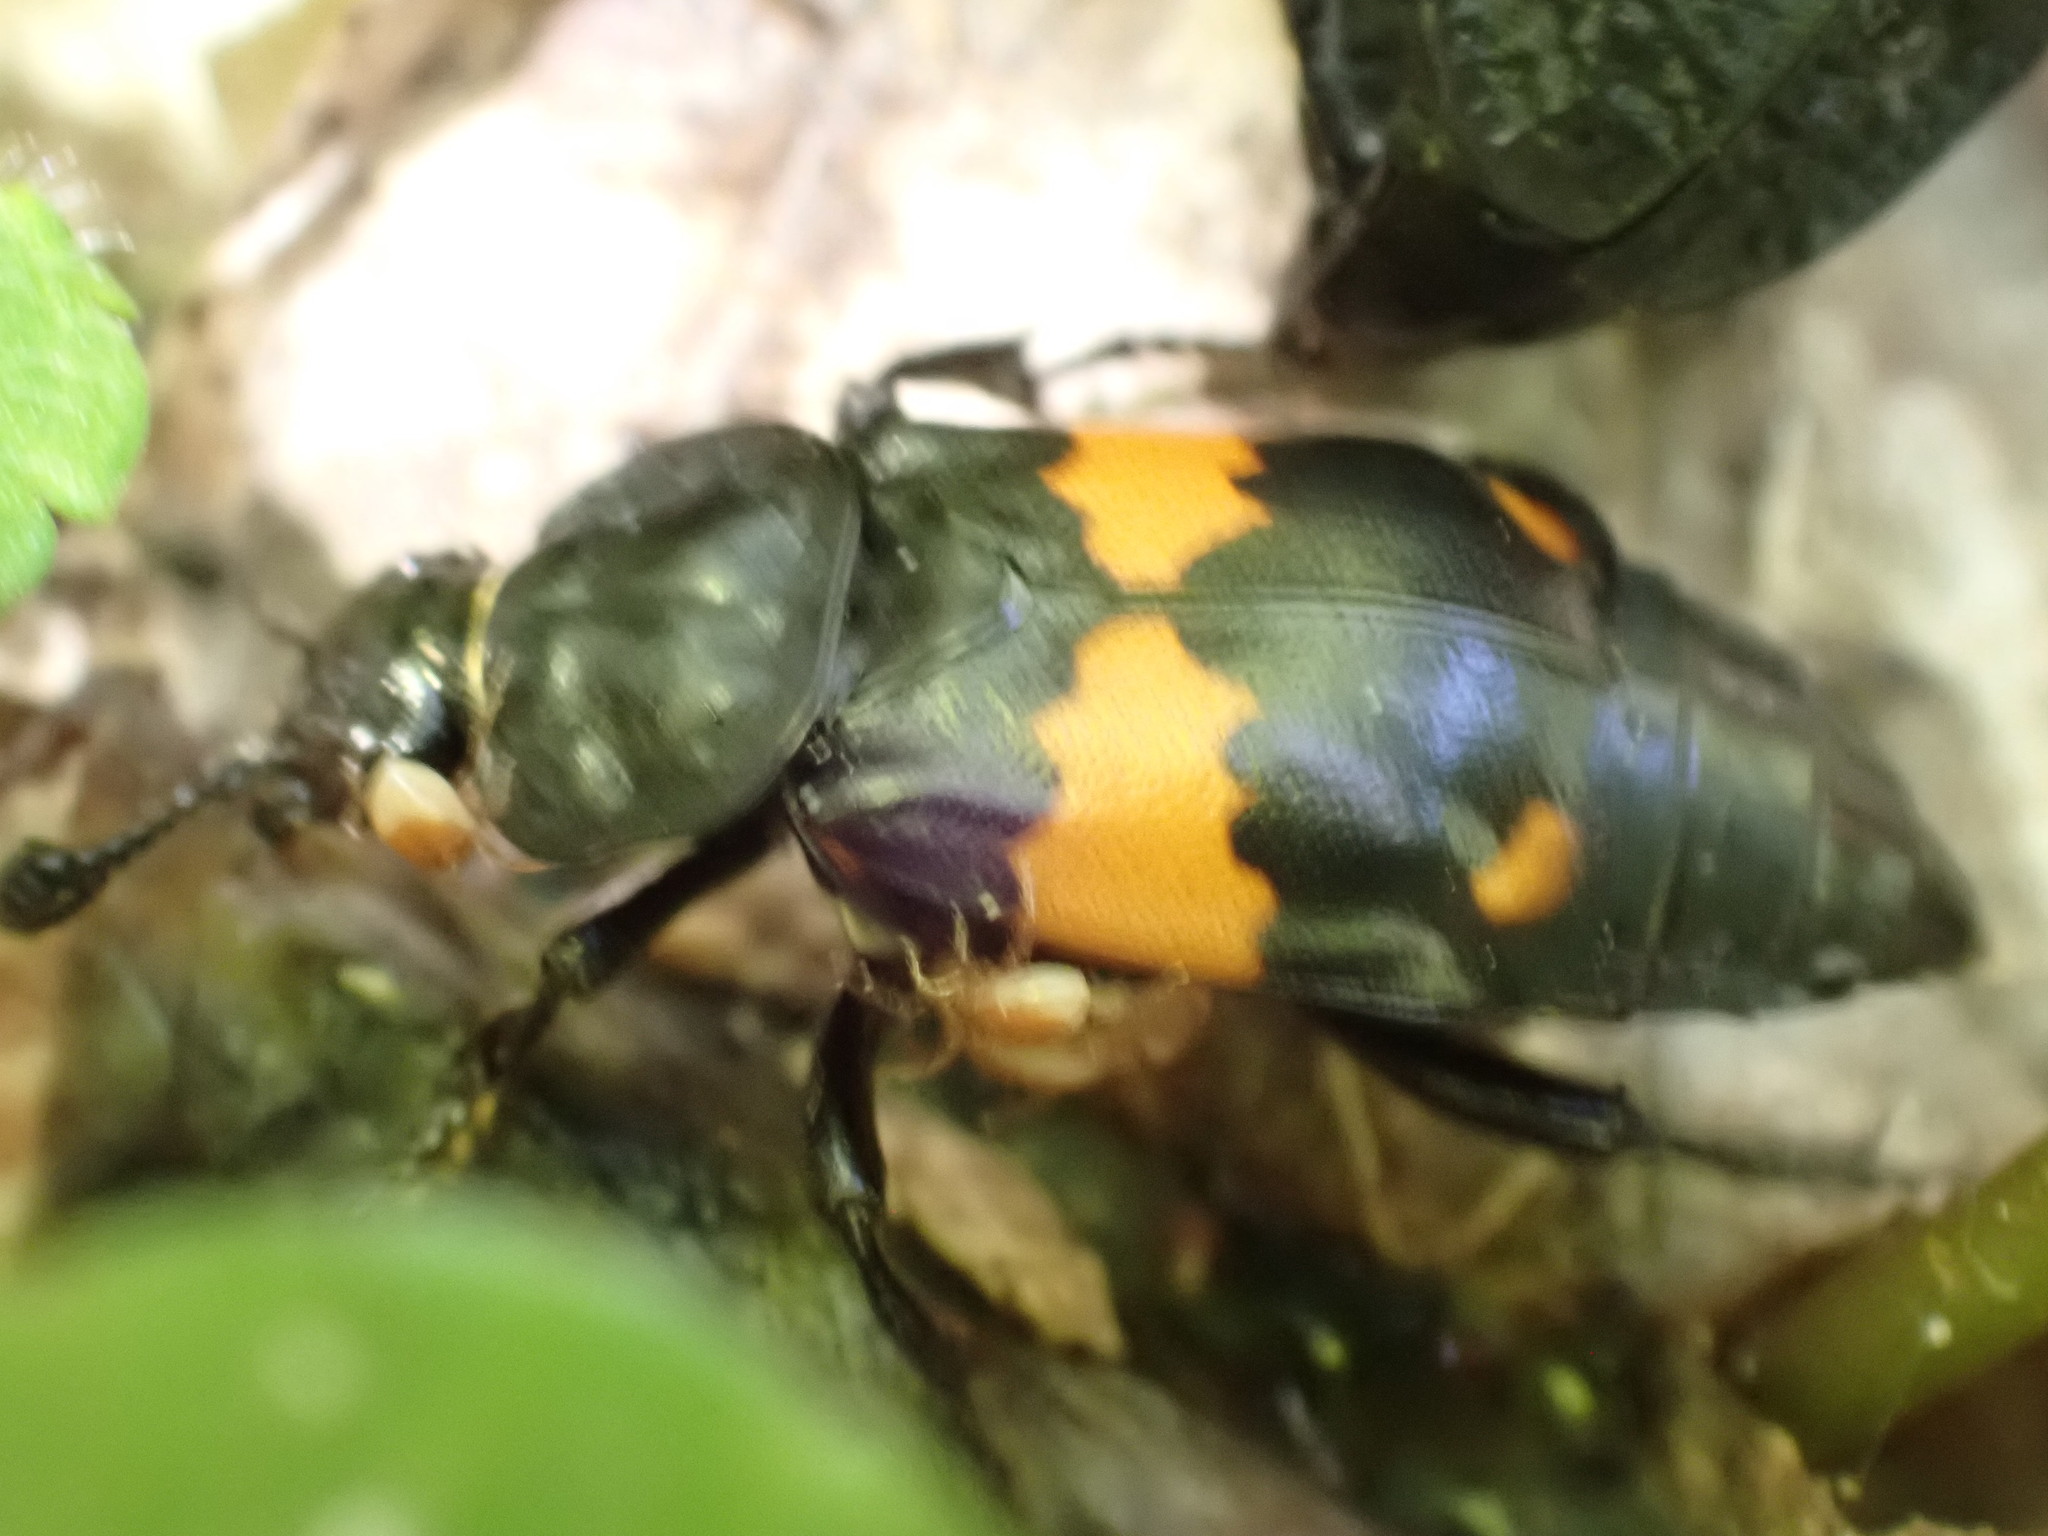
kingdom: Animalia
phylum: Arthropoda
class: Insecta
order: Coleoptera
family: Staphylinidae
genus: Nicrophorus
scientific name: Nicrophorus vespilloides
